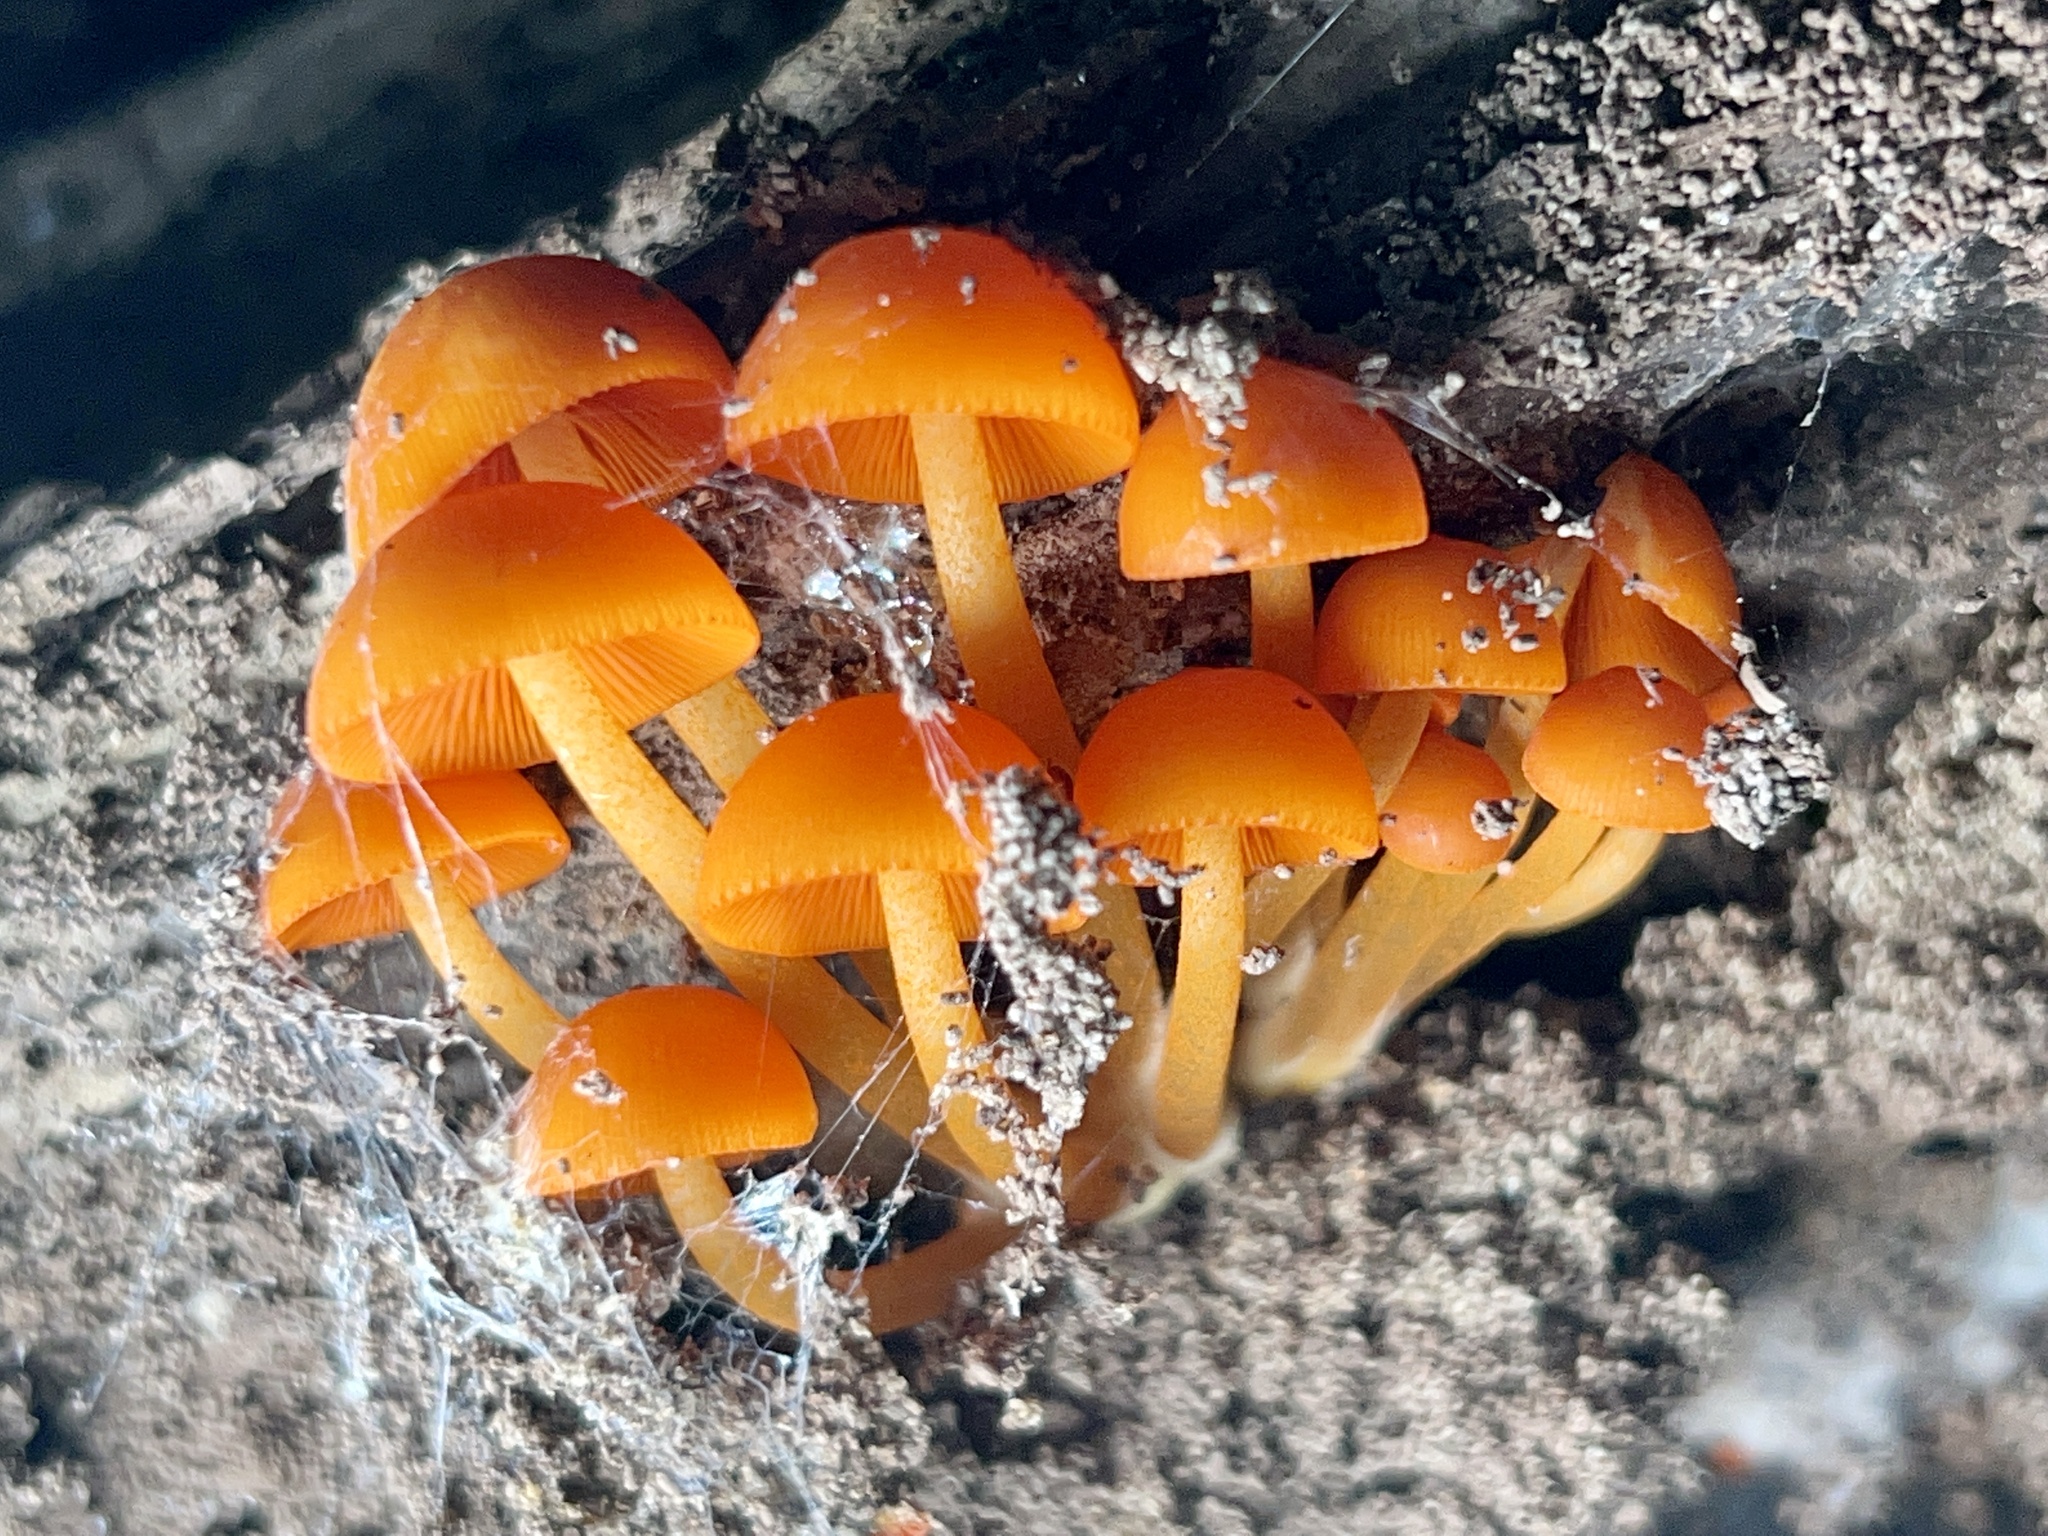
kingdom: Fungi
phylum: Basidiomycota
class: Agaricomycetes
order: Agaricales
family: Mycenaceae
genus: Mycena
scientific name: Mycena leaiana
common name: Orange mycena
